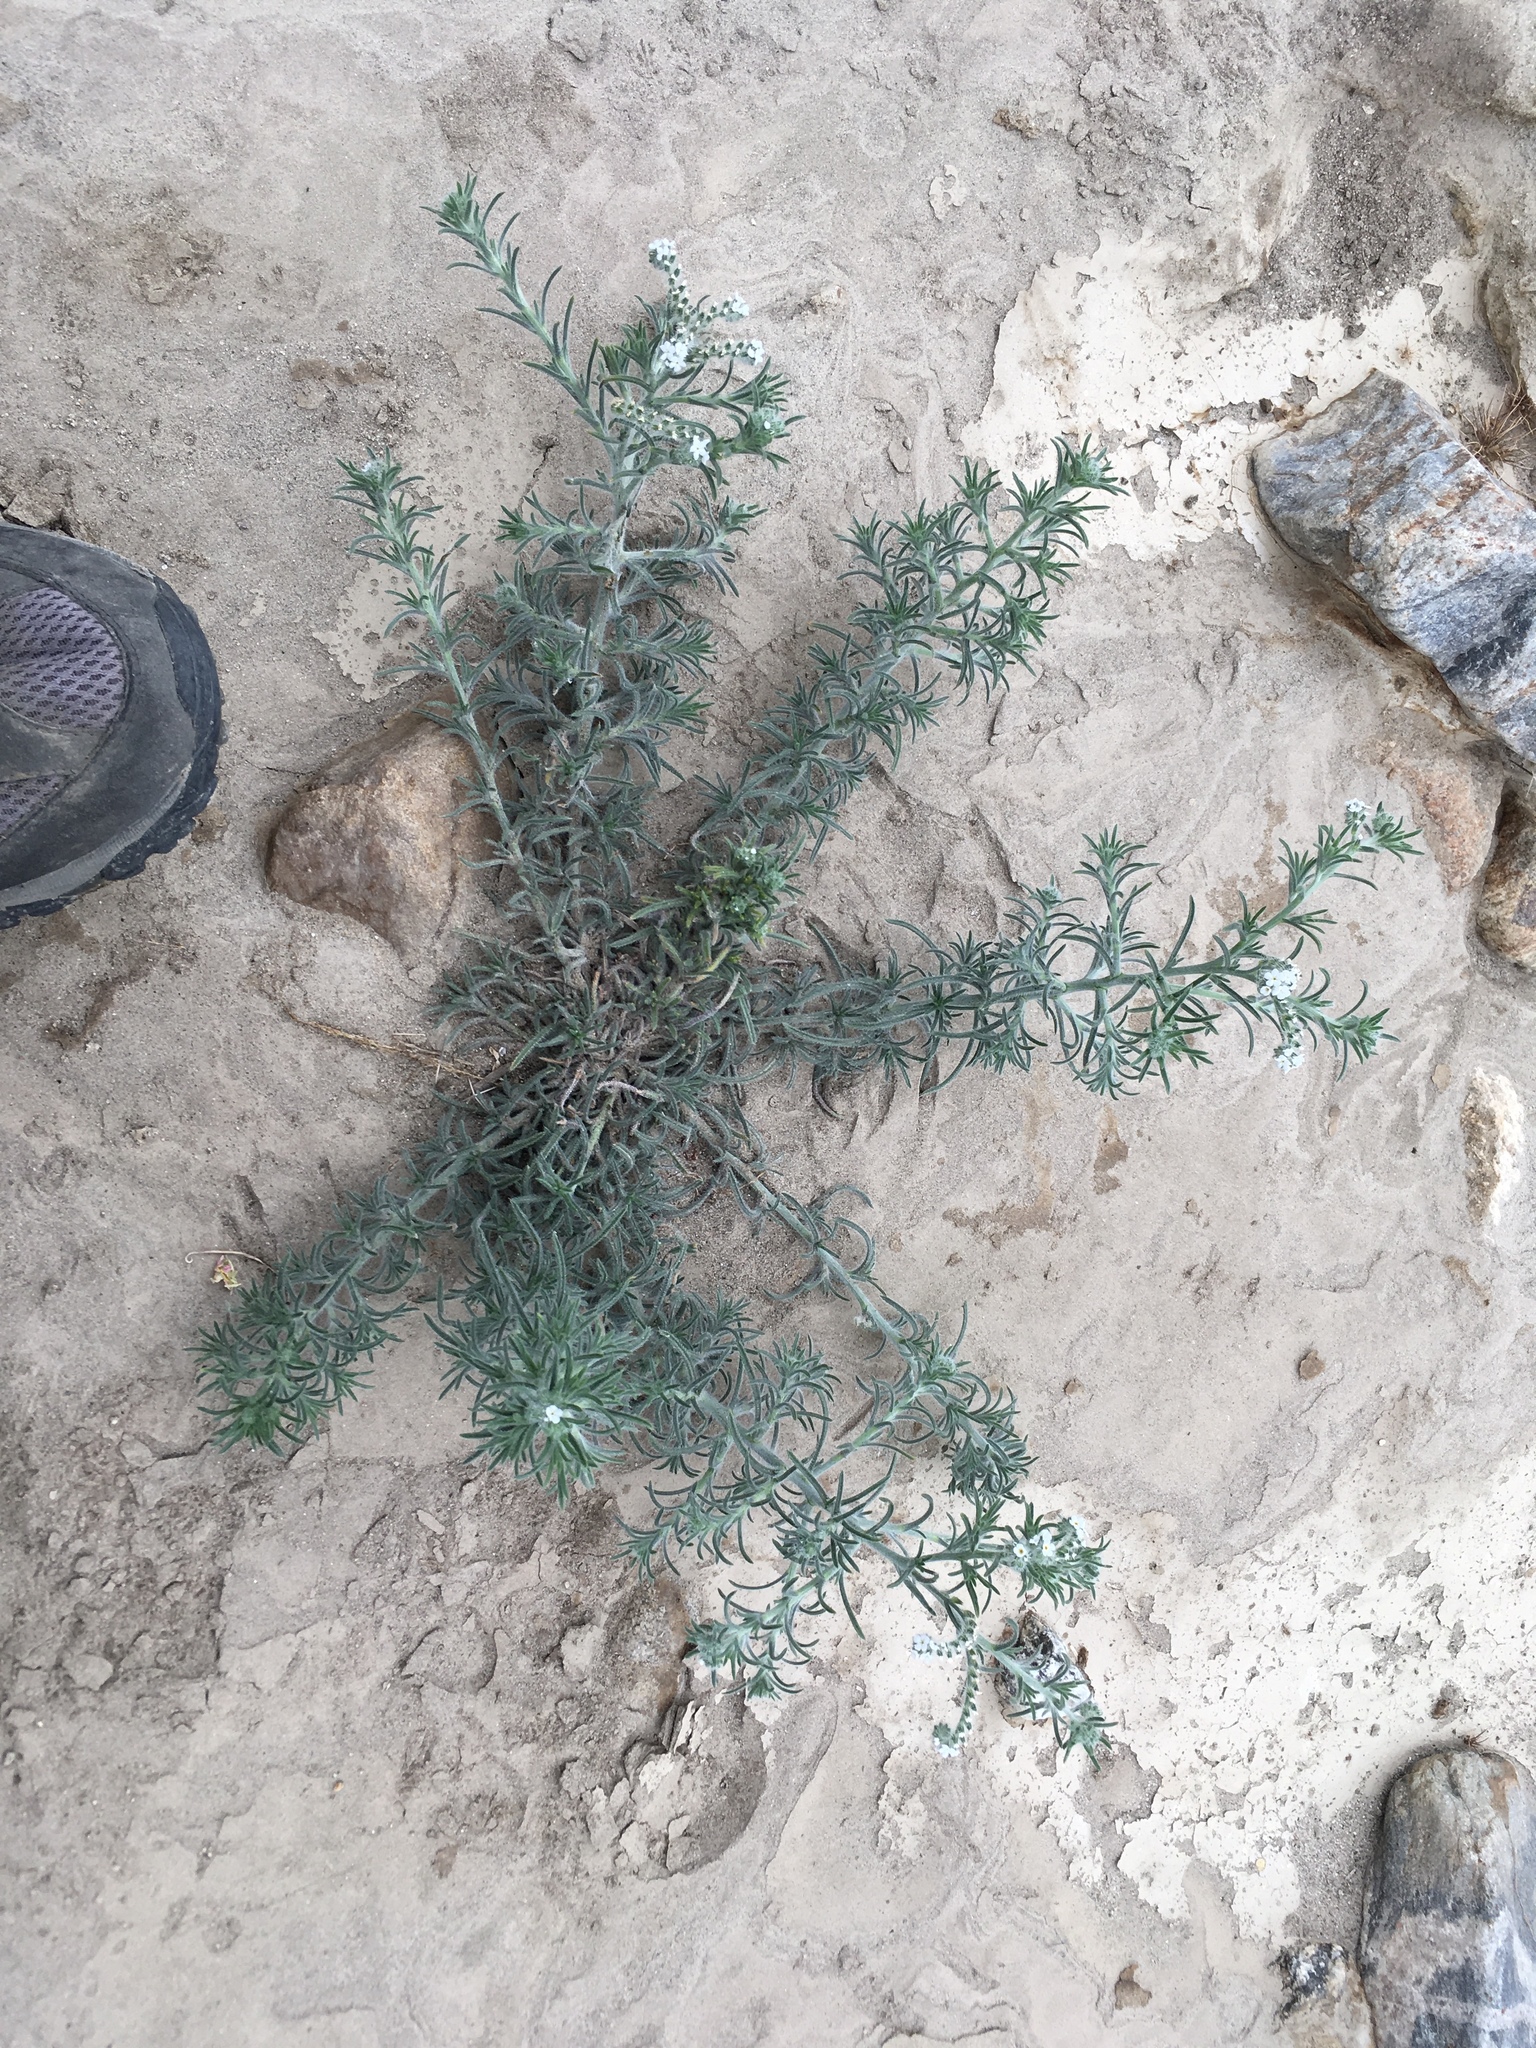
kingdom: Plantae
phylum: Tracheophyta
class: Magnoliopsida
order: Boraginales
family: Boraginaceae
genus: Johnstonella
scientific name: Johnstonella angustifolia
